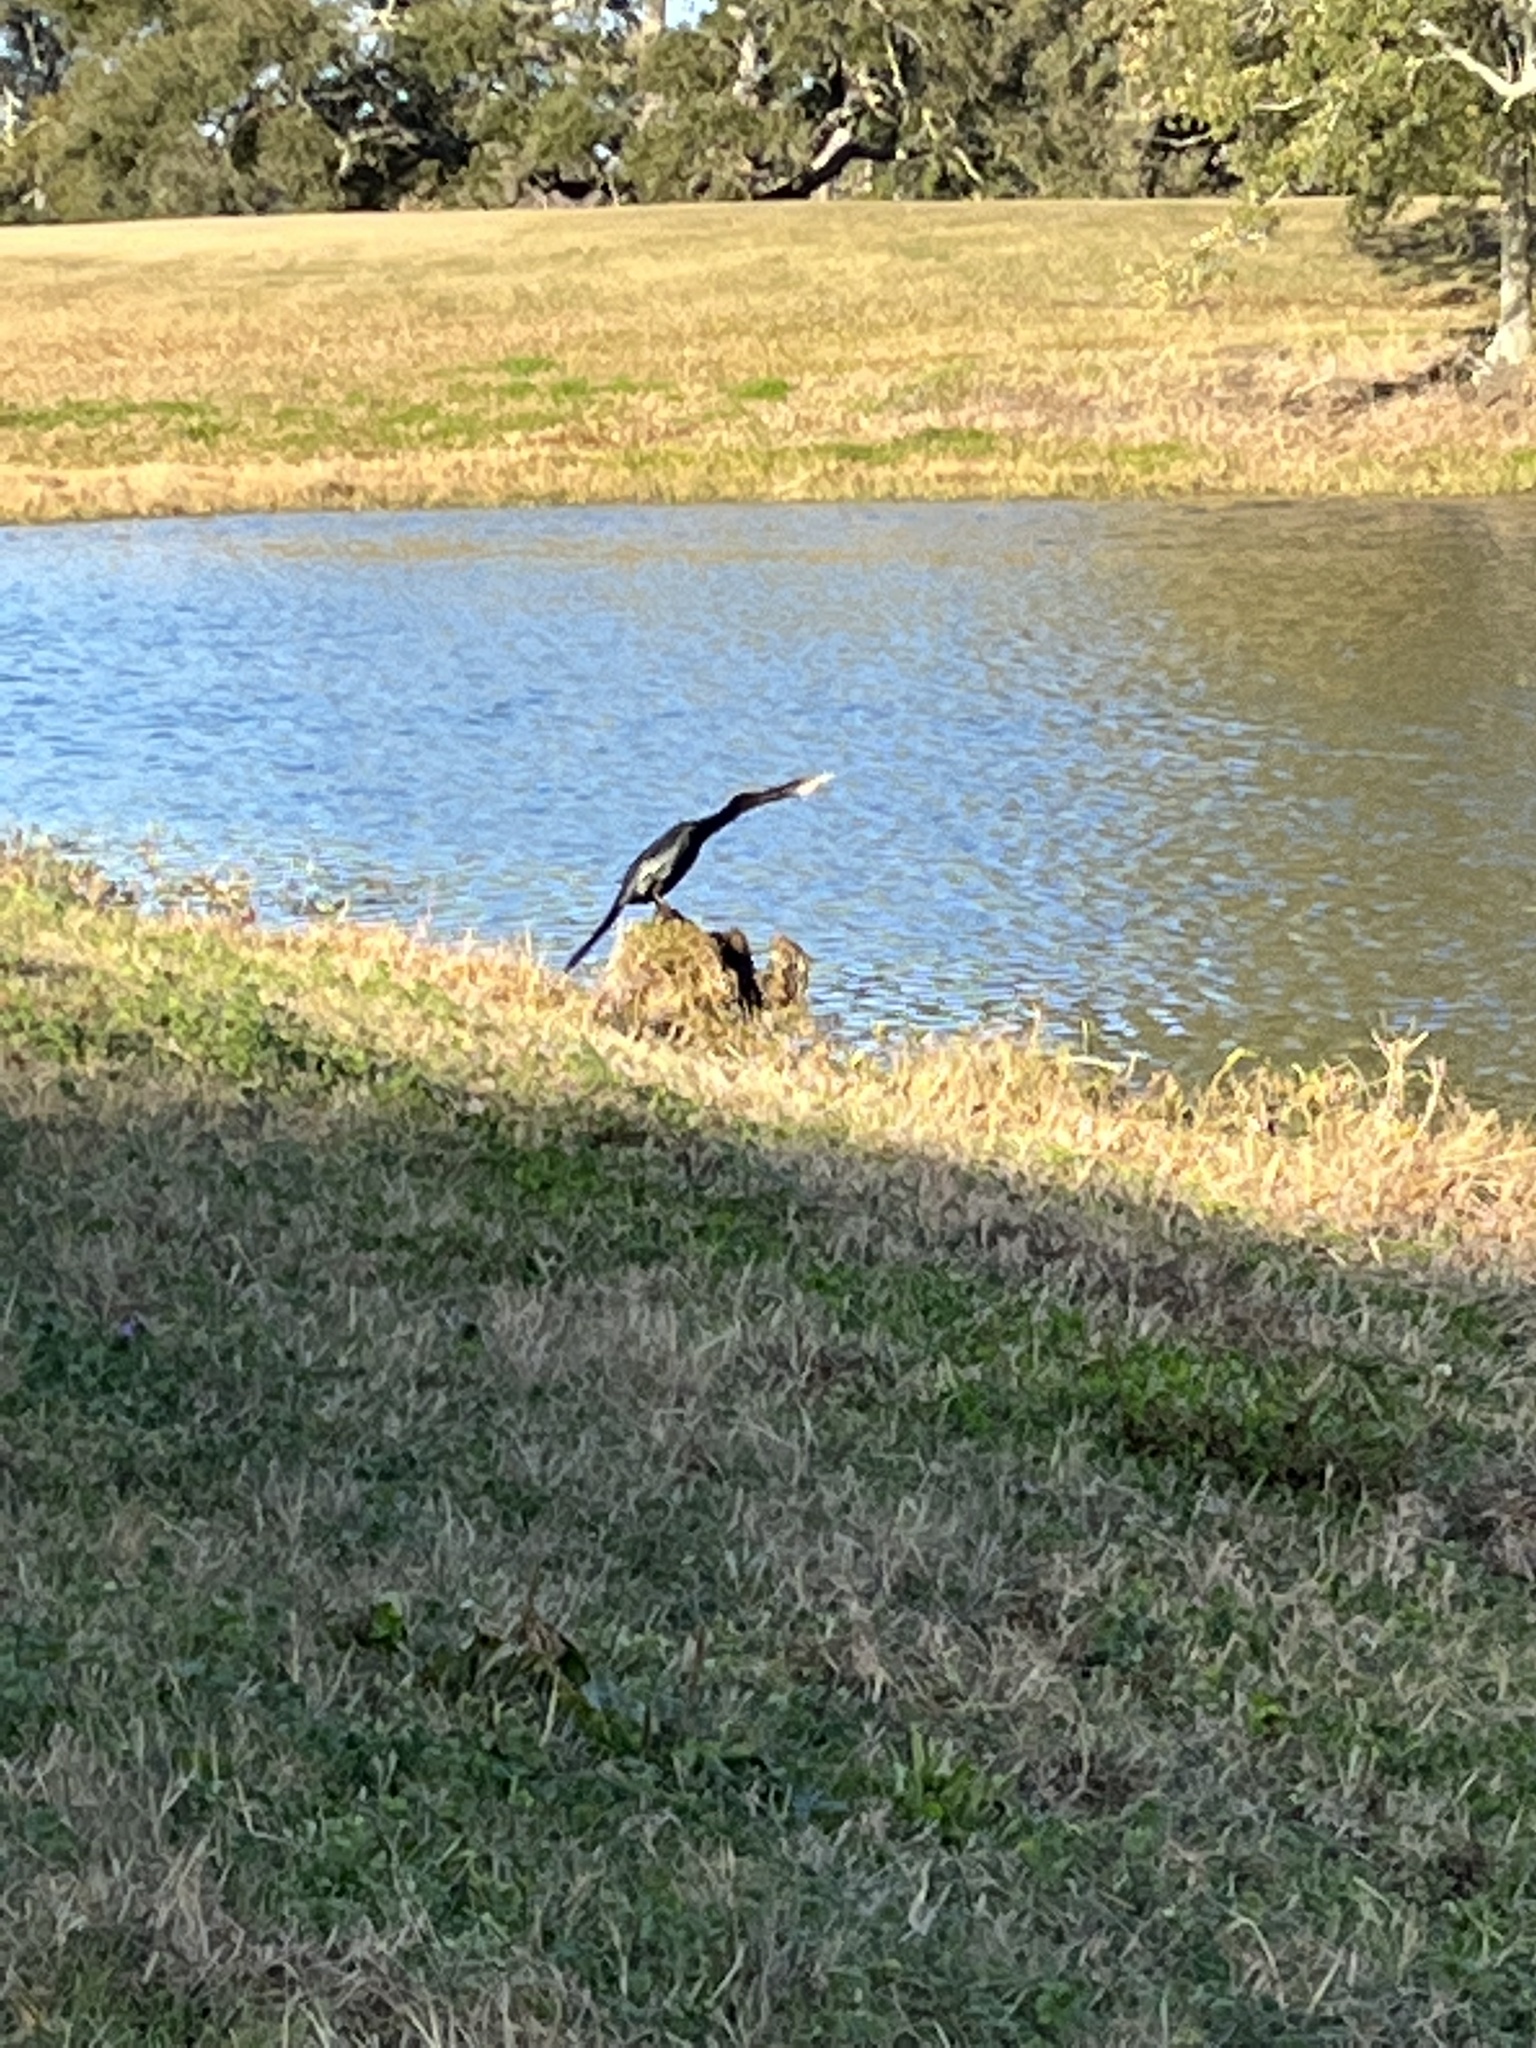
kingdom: Animalia
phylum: Chordata
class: Aves
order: Suliformes
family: Anhingidae
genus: Anhinga
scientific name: Anhinga anhinga
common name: Anhinga
